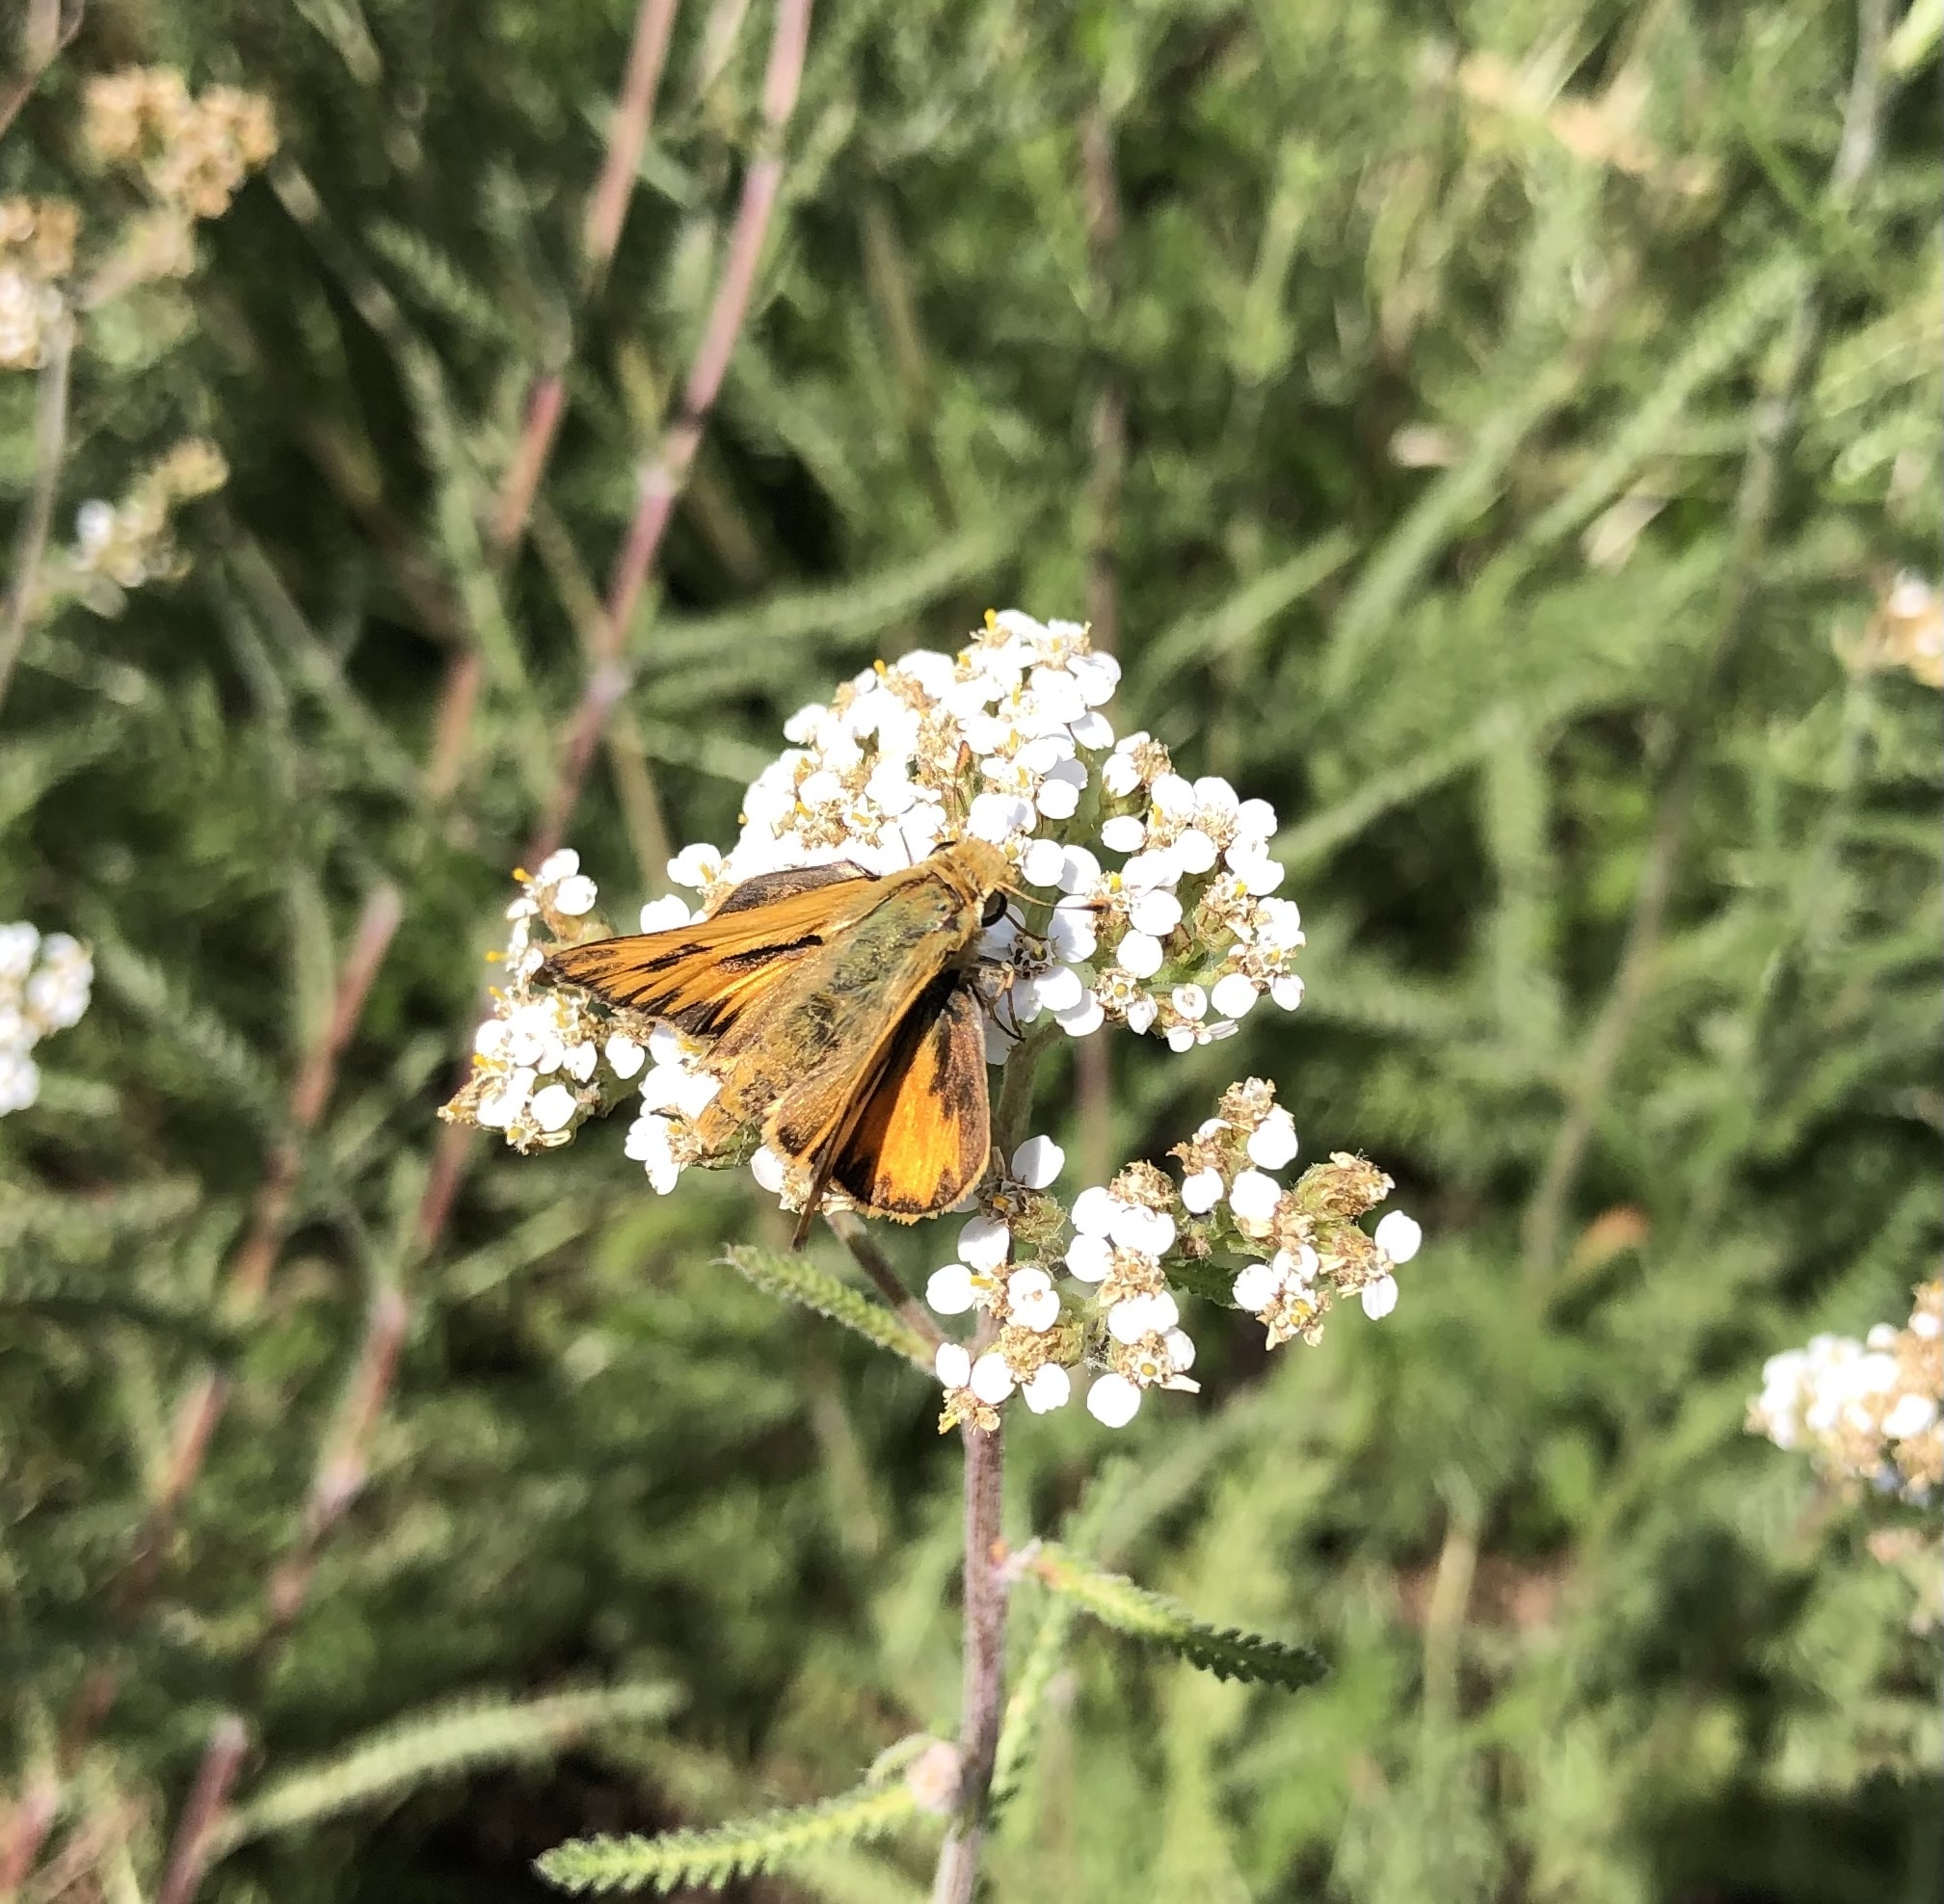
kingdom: Animalia
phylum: Arthropoda
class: Insecta
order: Lepidoptera
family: Hesperiidae
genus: Hylephila
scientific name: Hylephila phyleus
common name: Fiery skipper
